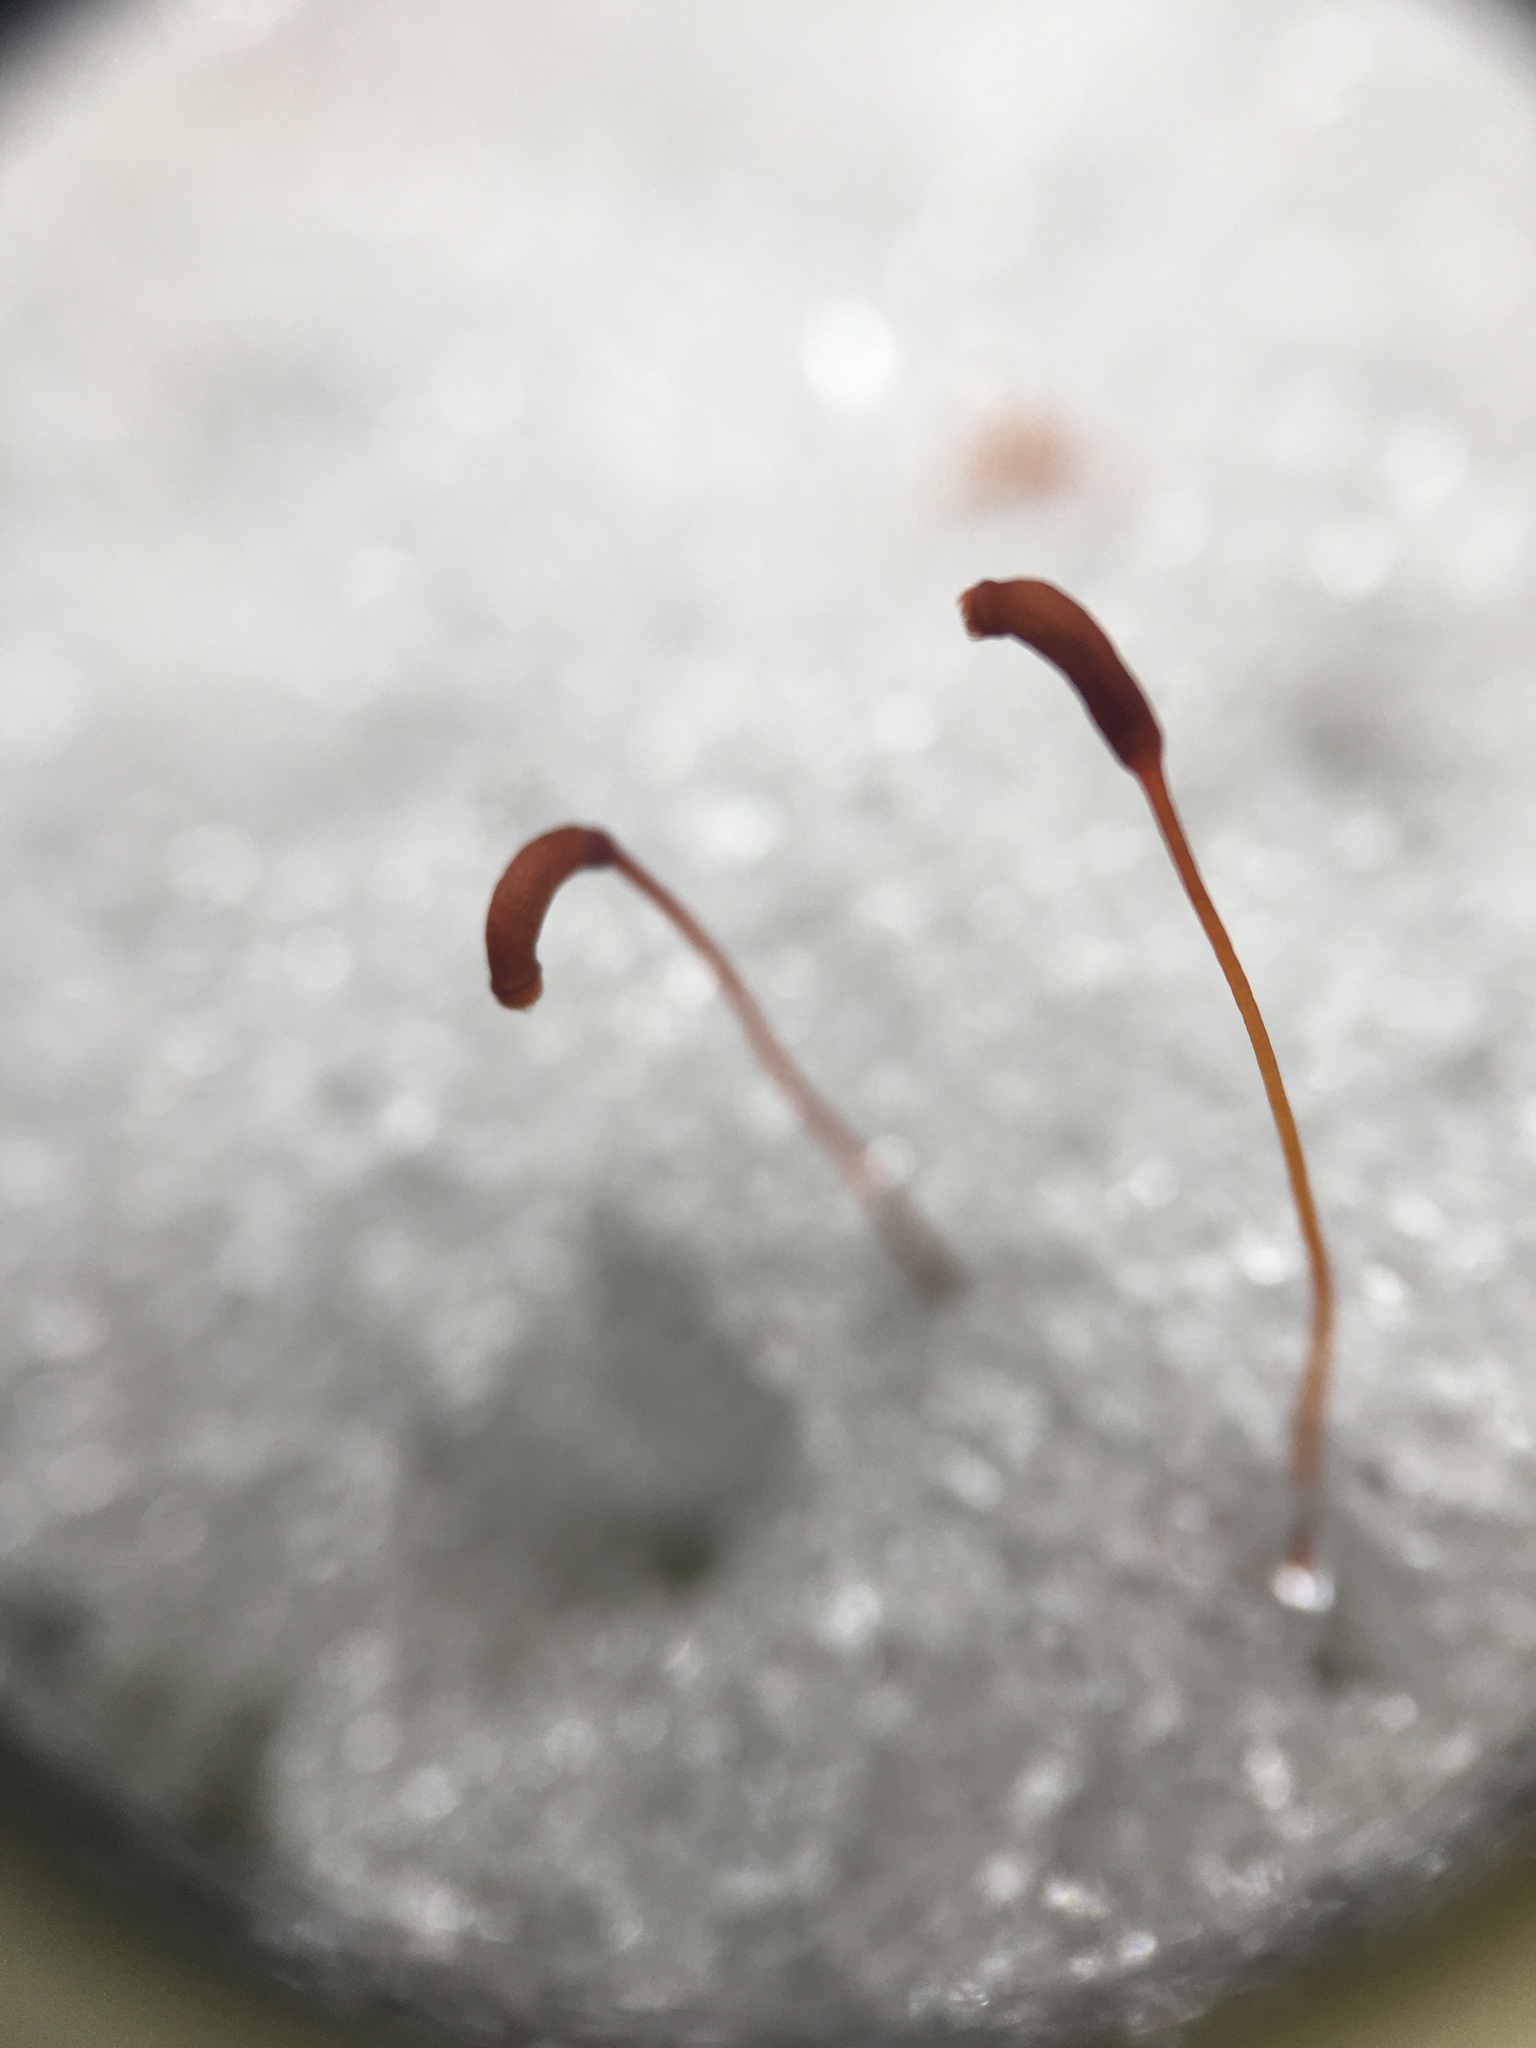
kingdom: Plantae
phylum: Bryophyta
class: Bryopsida
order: Hypnales
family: Thuidiaceae
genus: Thuidium
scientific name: Thuidium delicatulum
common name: Delicate fern moss
